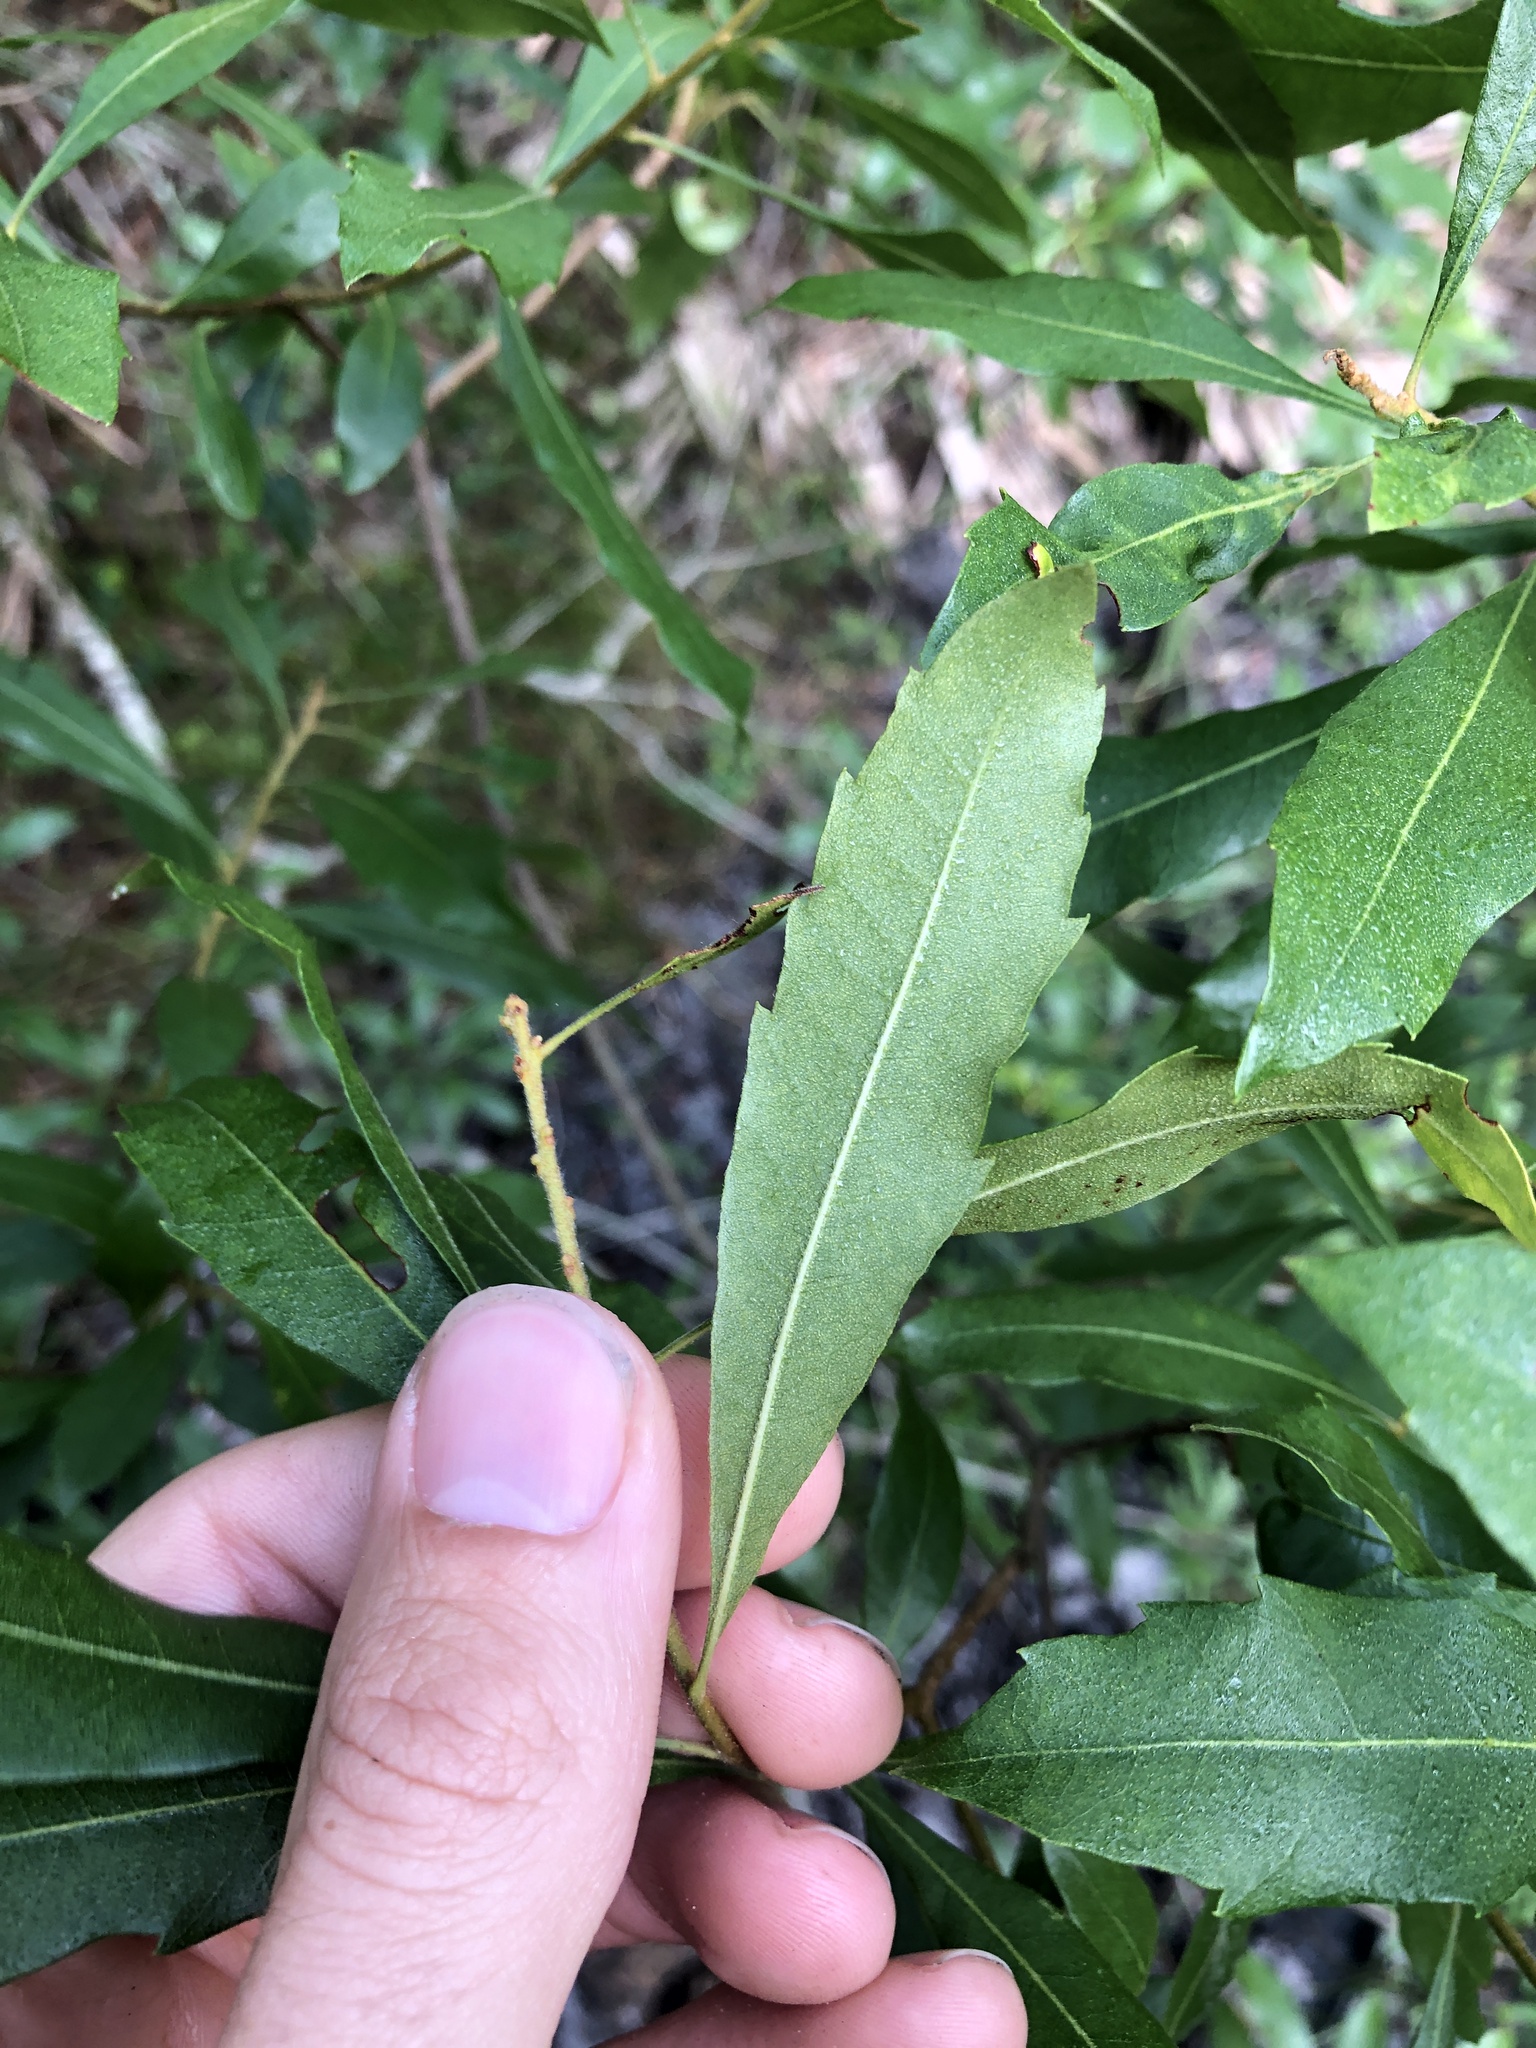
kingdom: Plantae
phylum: Tracheophyta
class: Magnoliopsida
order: Fagales
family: Myricaceae
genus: Morella
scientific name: Morella cerifera
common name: Wax myrtle
